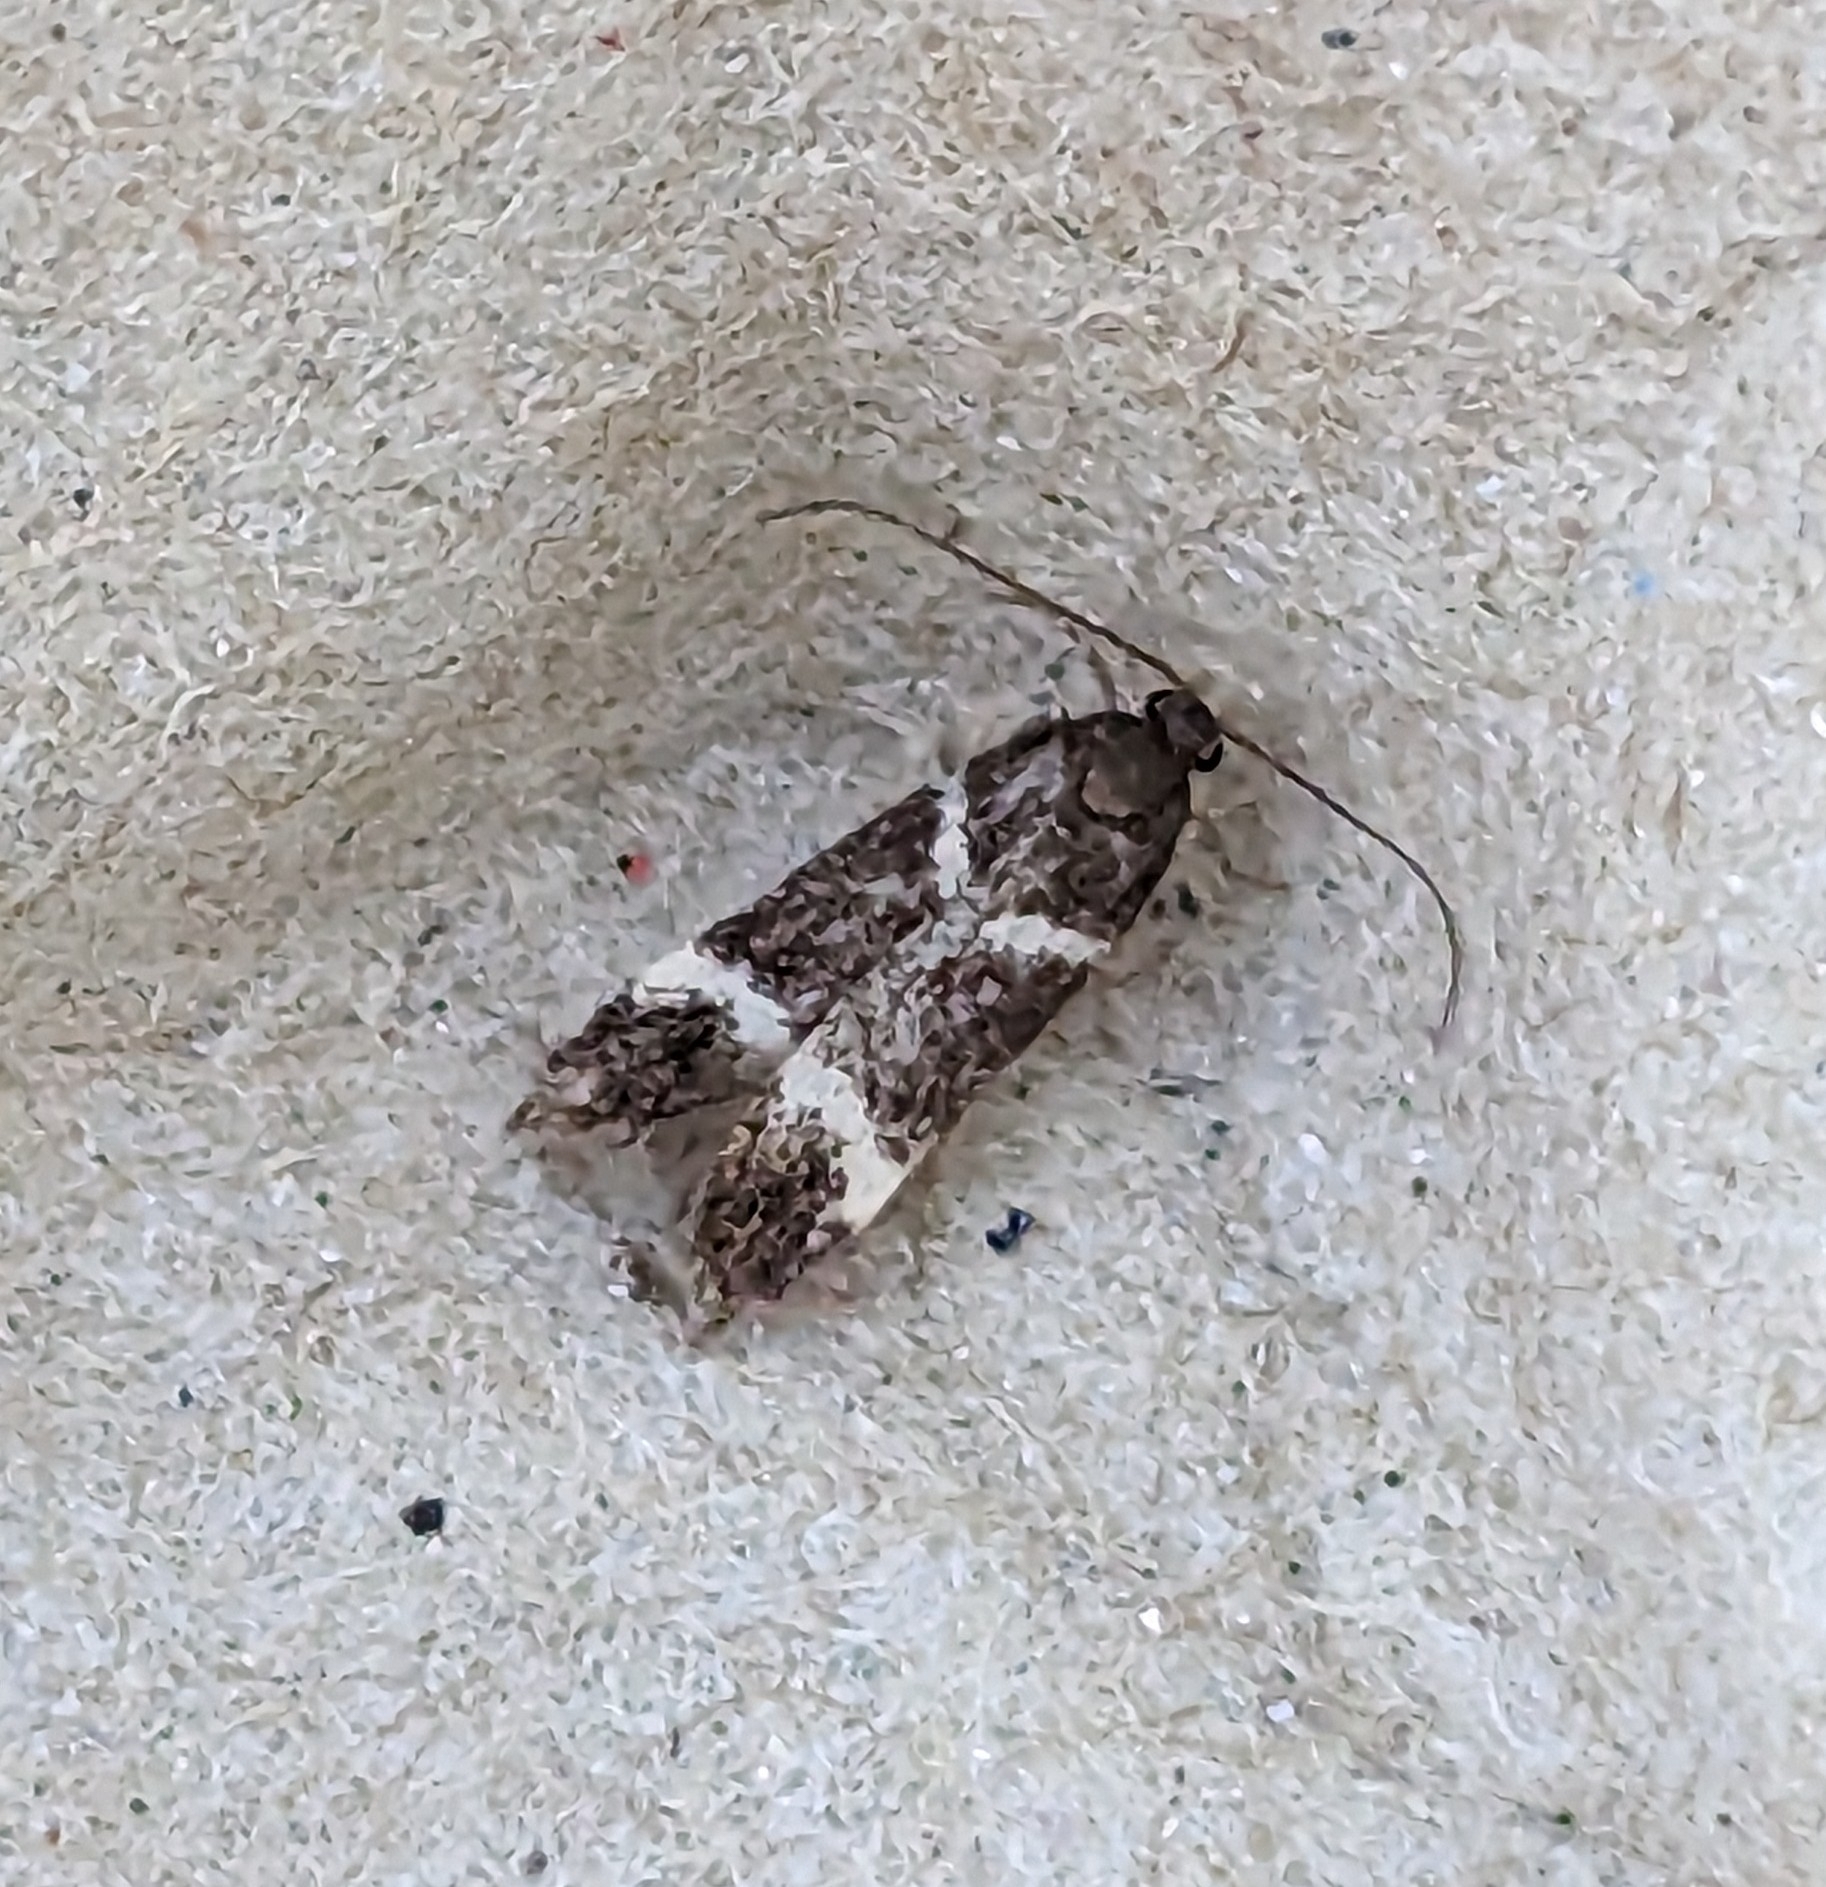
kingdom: Animalia
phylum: Arthropoda
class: Insecta
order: Lepidoptera
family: Gelechiidae
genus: Chionodes
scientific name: Chionodes lugubrella
